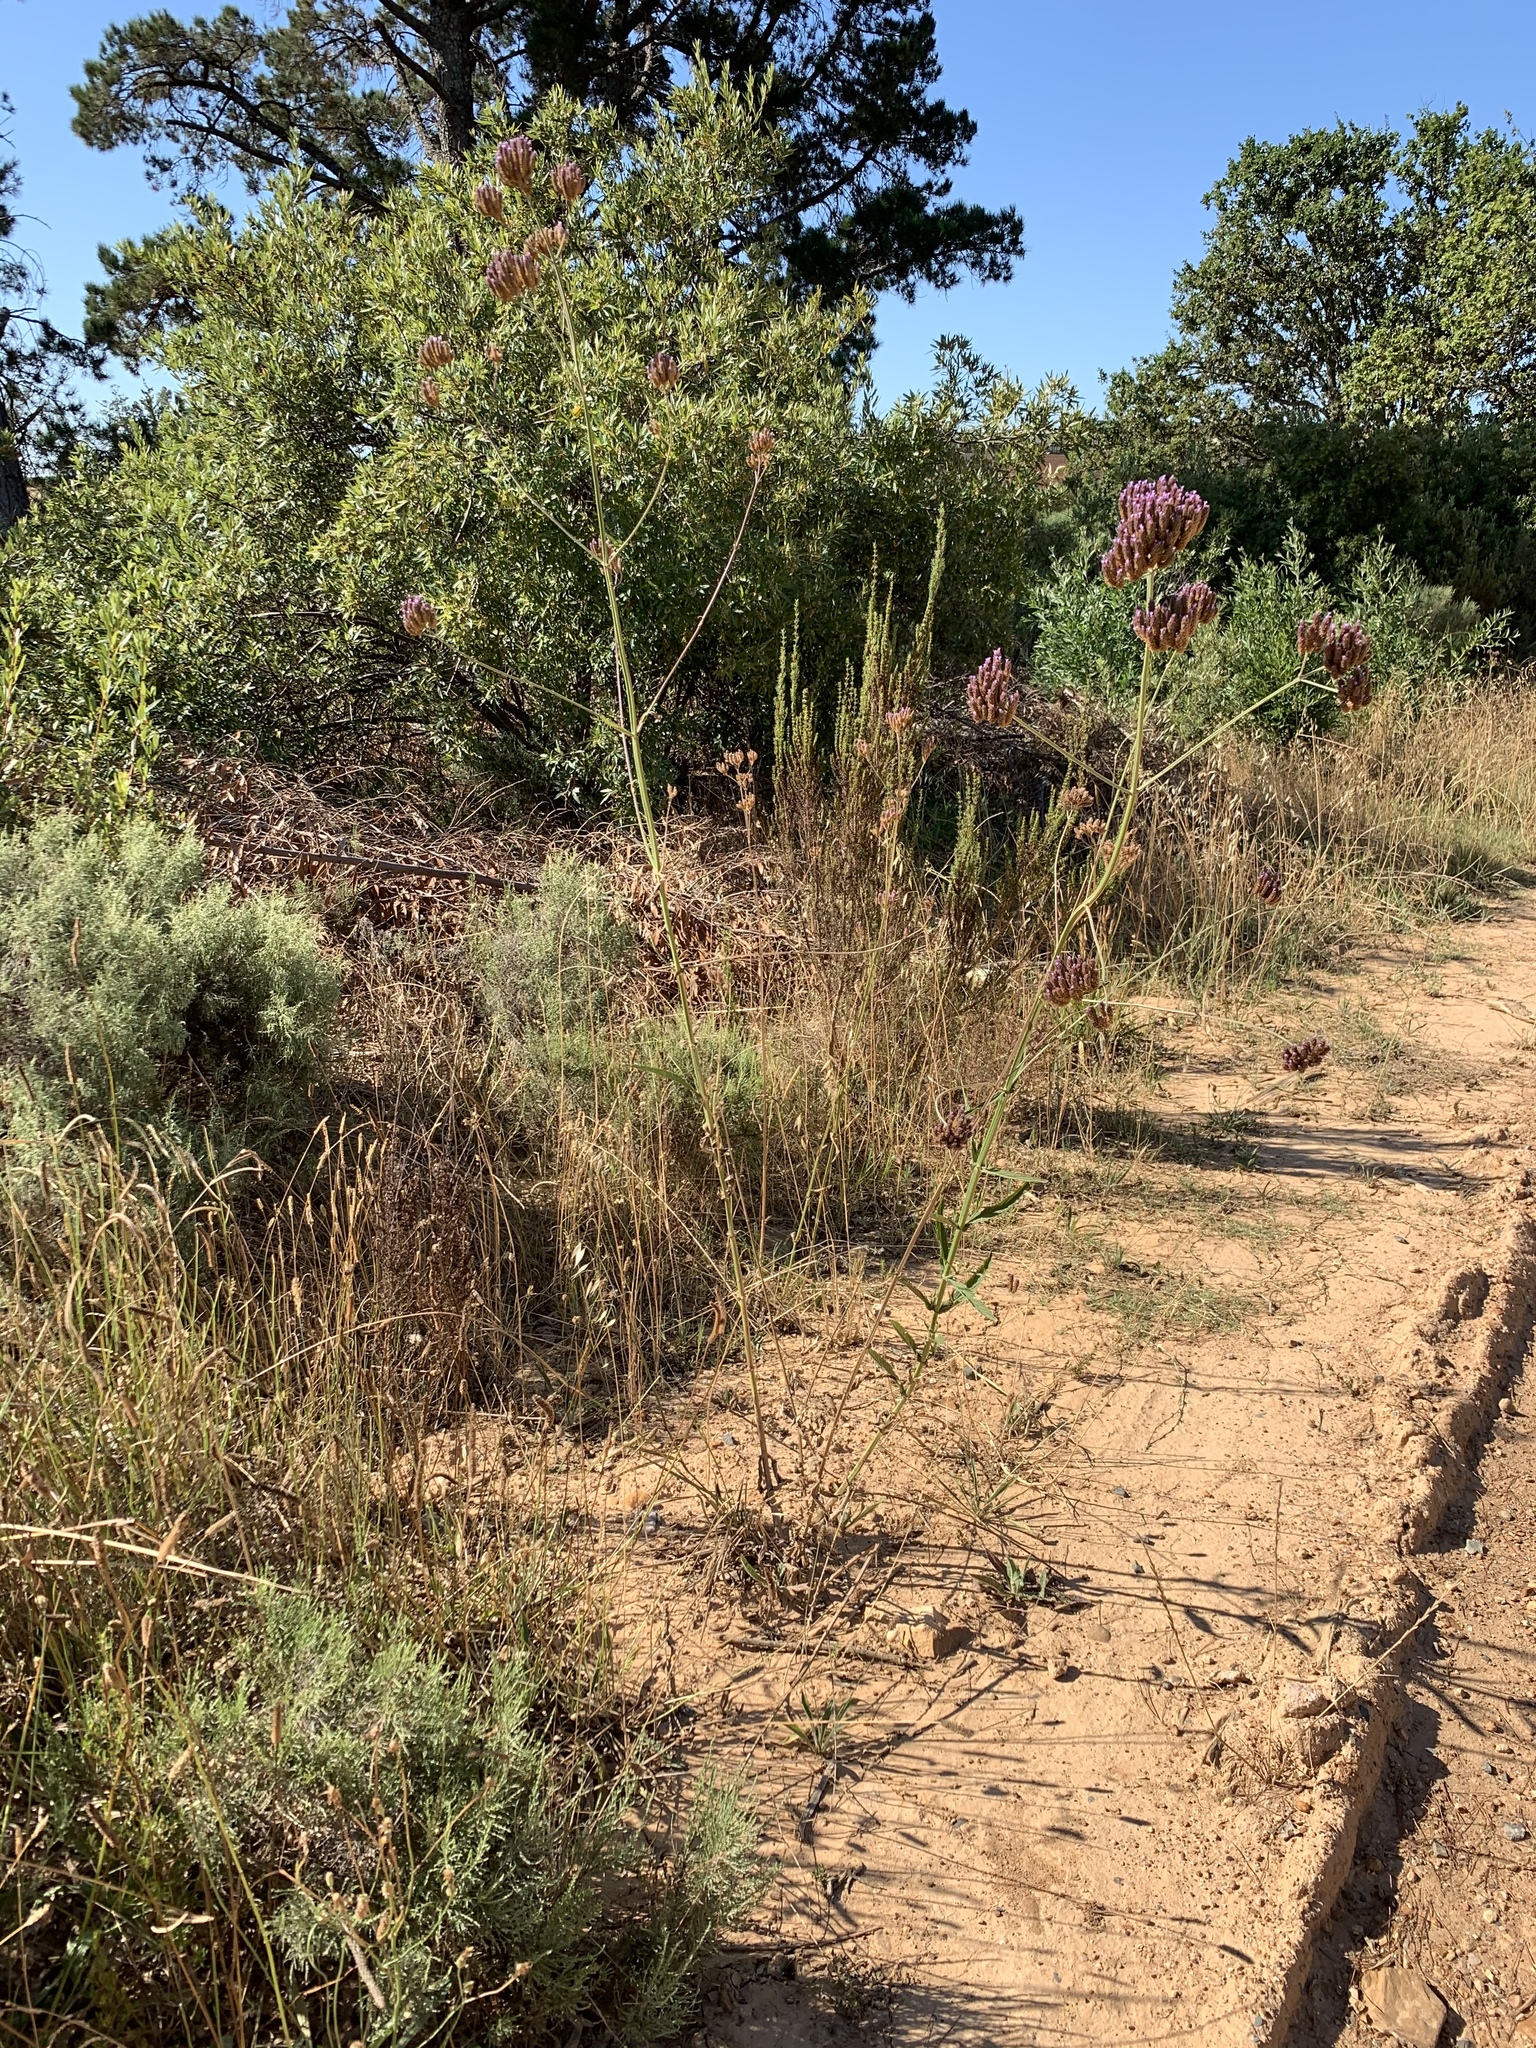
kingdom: Plantae
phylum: Tracheophyta
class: Magnoliopsida
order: Lamiales
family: Verbenaceae
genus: Verbena
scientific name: Verbena bonariensis
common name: Purpletop vervain
